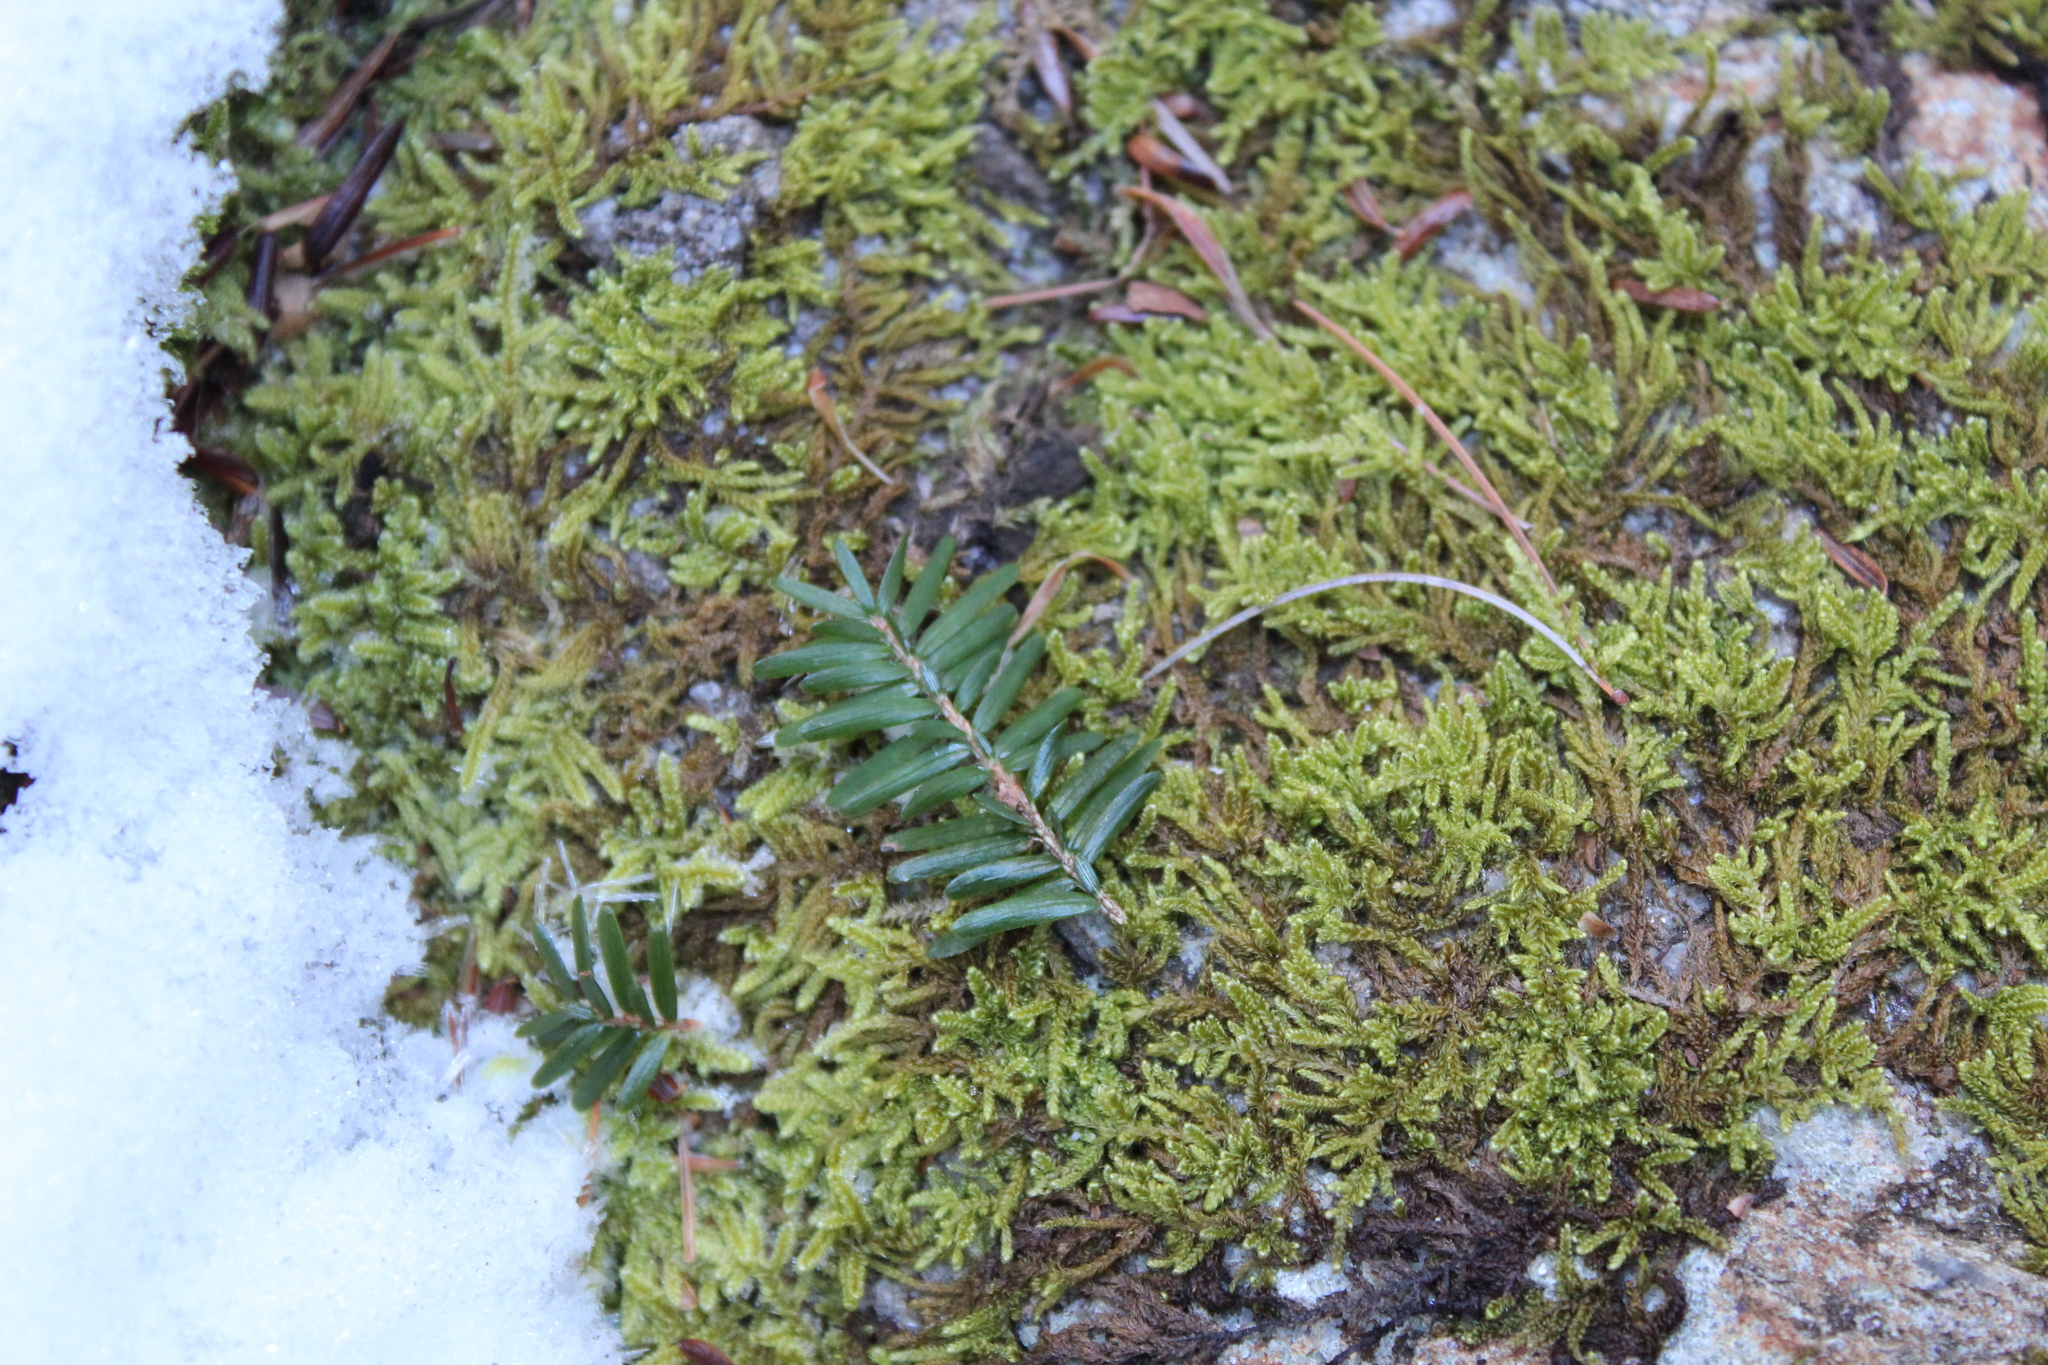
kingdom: Plantae
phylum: Bryophyta
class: Bryopsida
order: Hypnales
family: Callicladiaceae
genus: Callicladium
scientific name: Callicladium imponens
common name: Brocade moss
